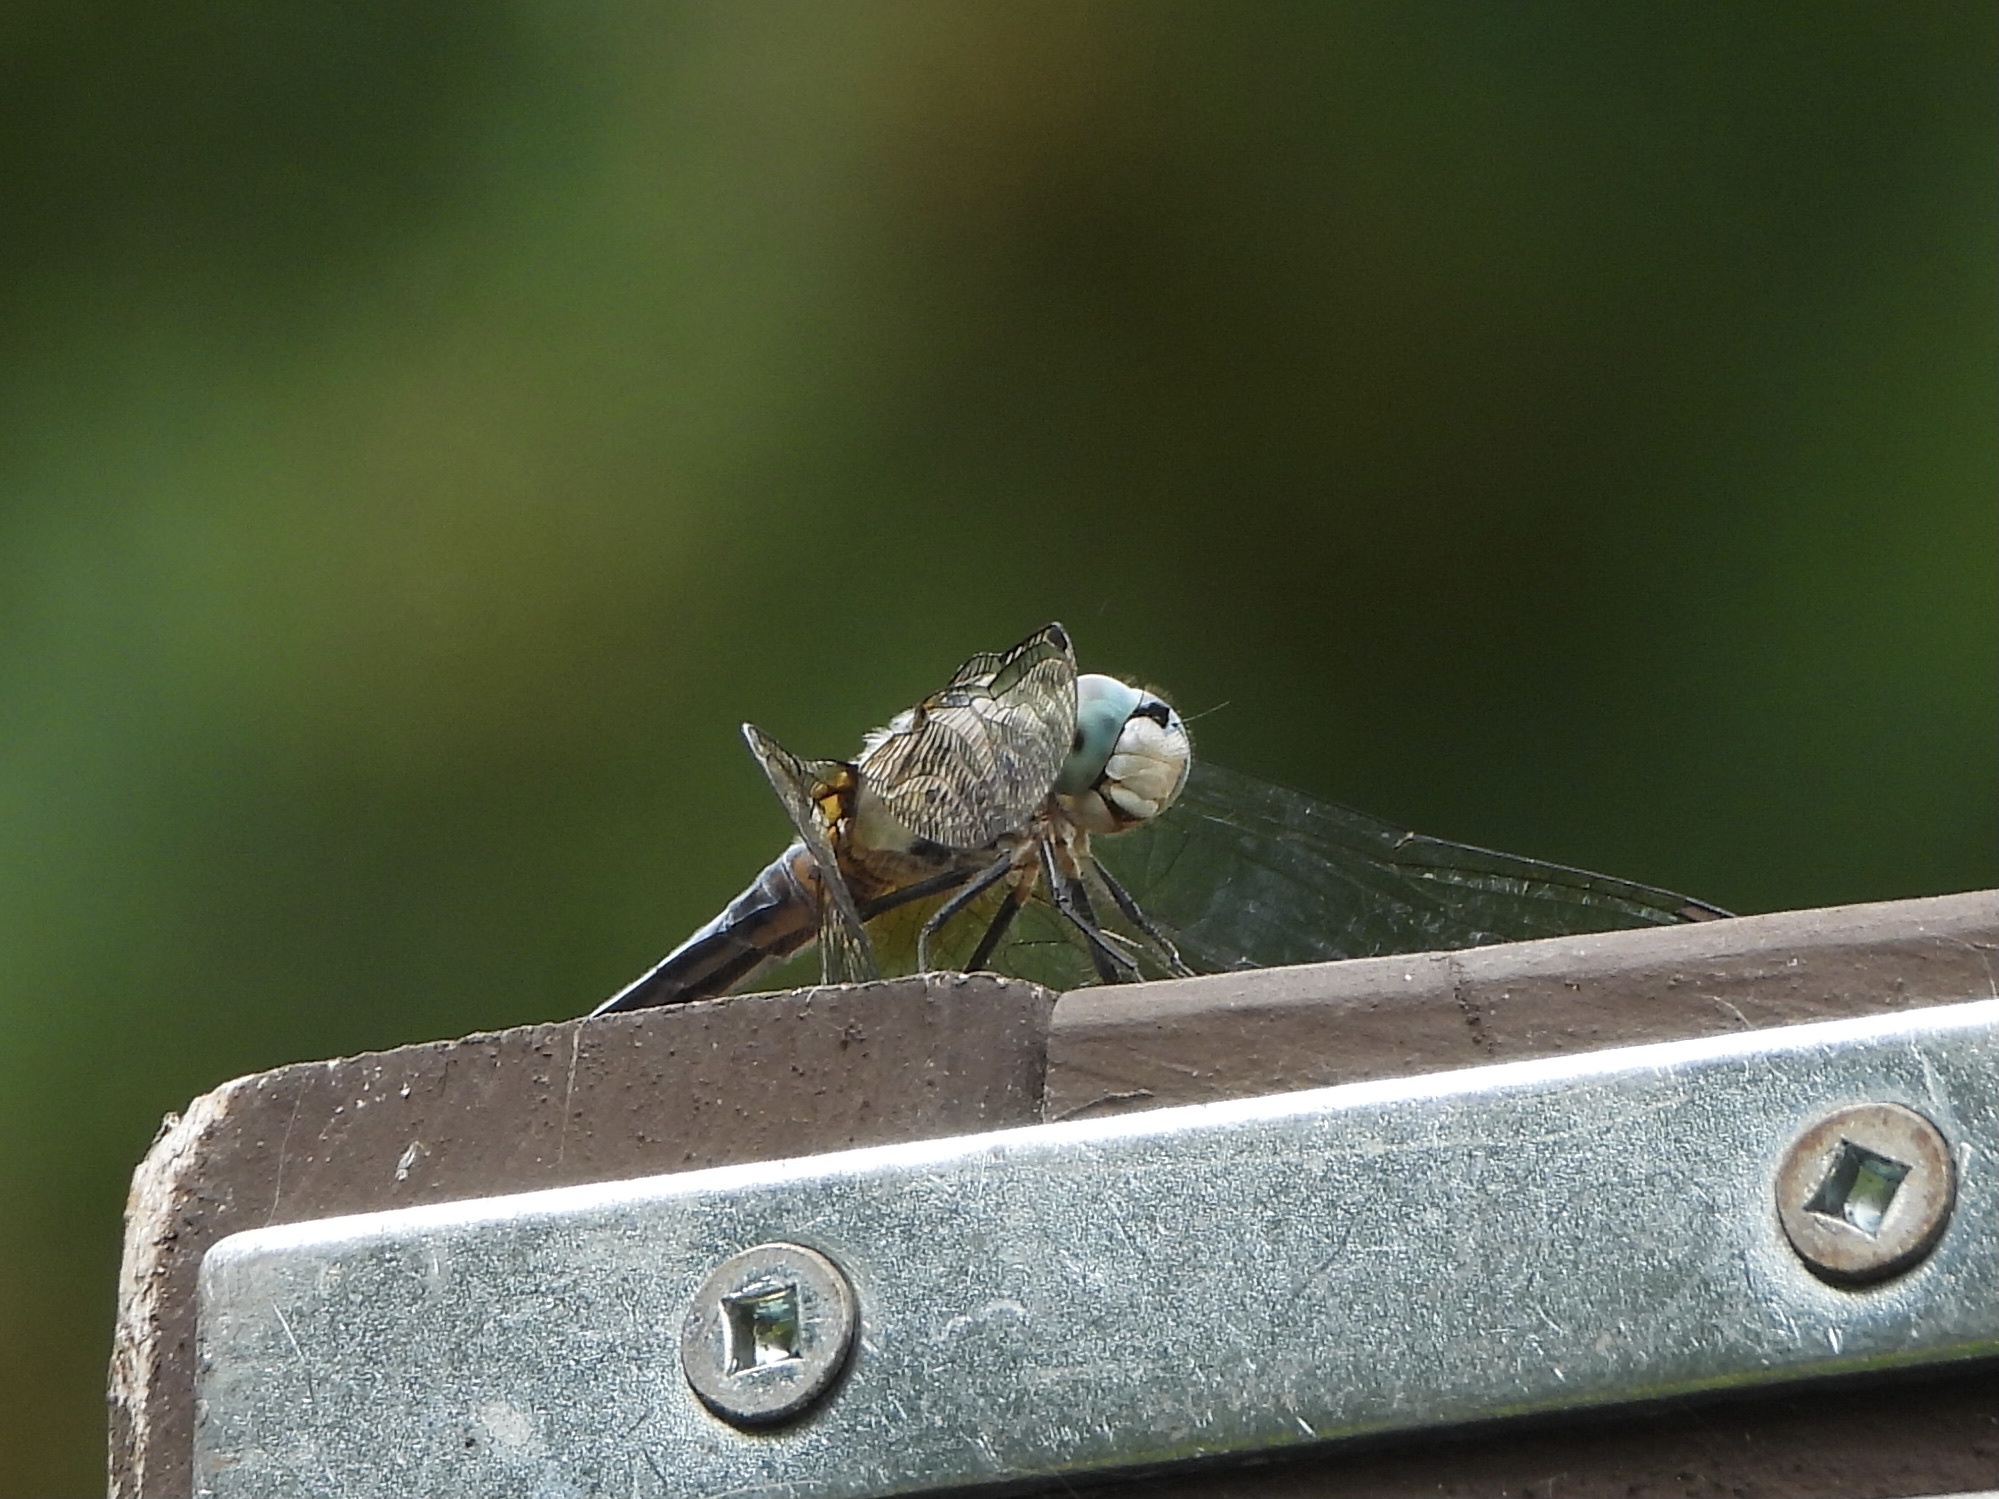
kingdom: Animalia
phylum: Arthropoda
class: Insecta
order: Odonata
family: Libellulidae
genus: Pachydiplax
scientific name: Pachydiplax longipennis
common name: Blue dasher
